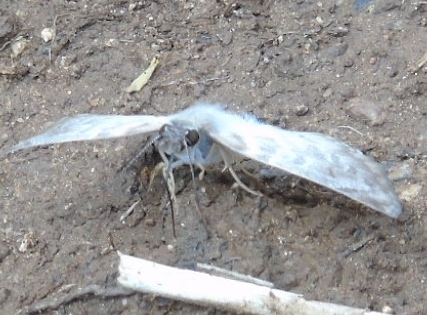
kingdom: Animalia
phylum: Arthropoda
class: Insecta
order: Lepidoptera
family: Hesperiidae
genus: Mylon
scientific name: Mylon pelopidas
